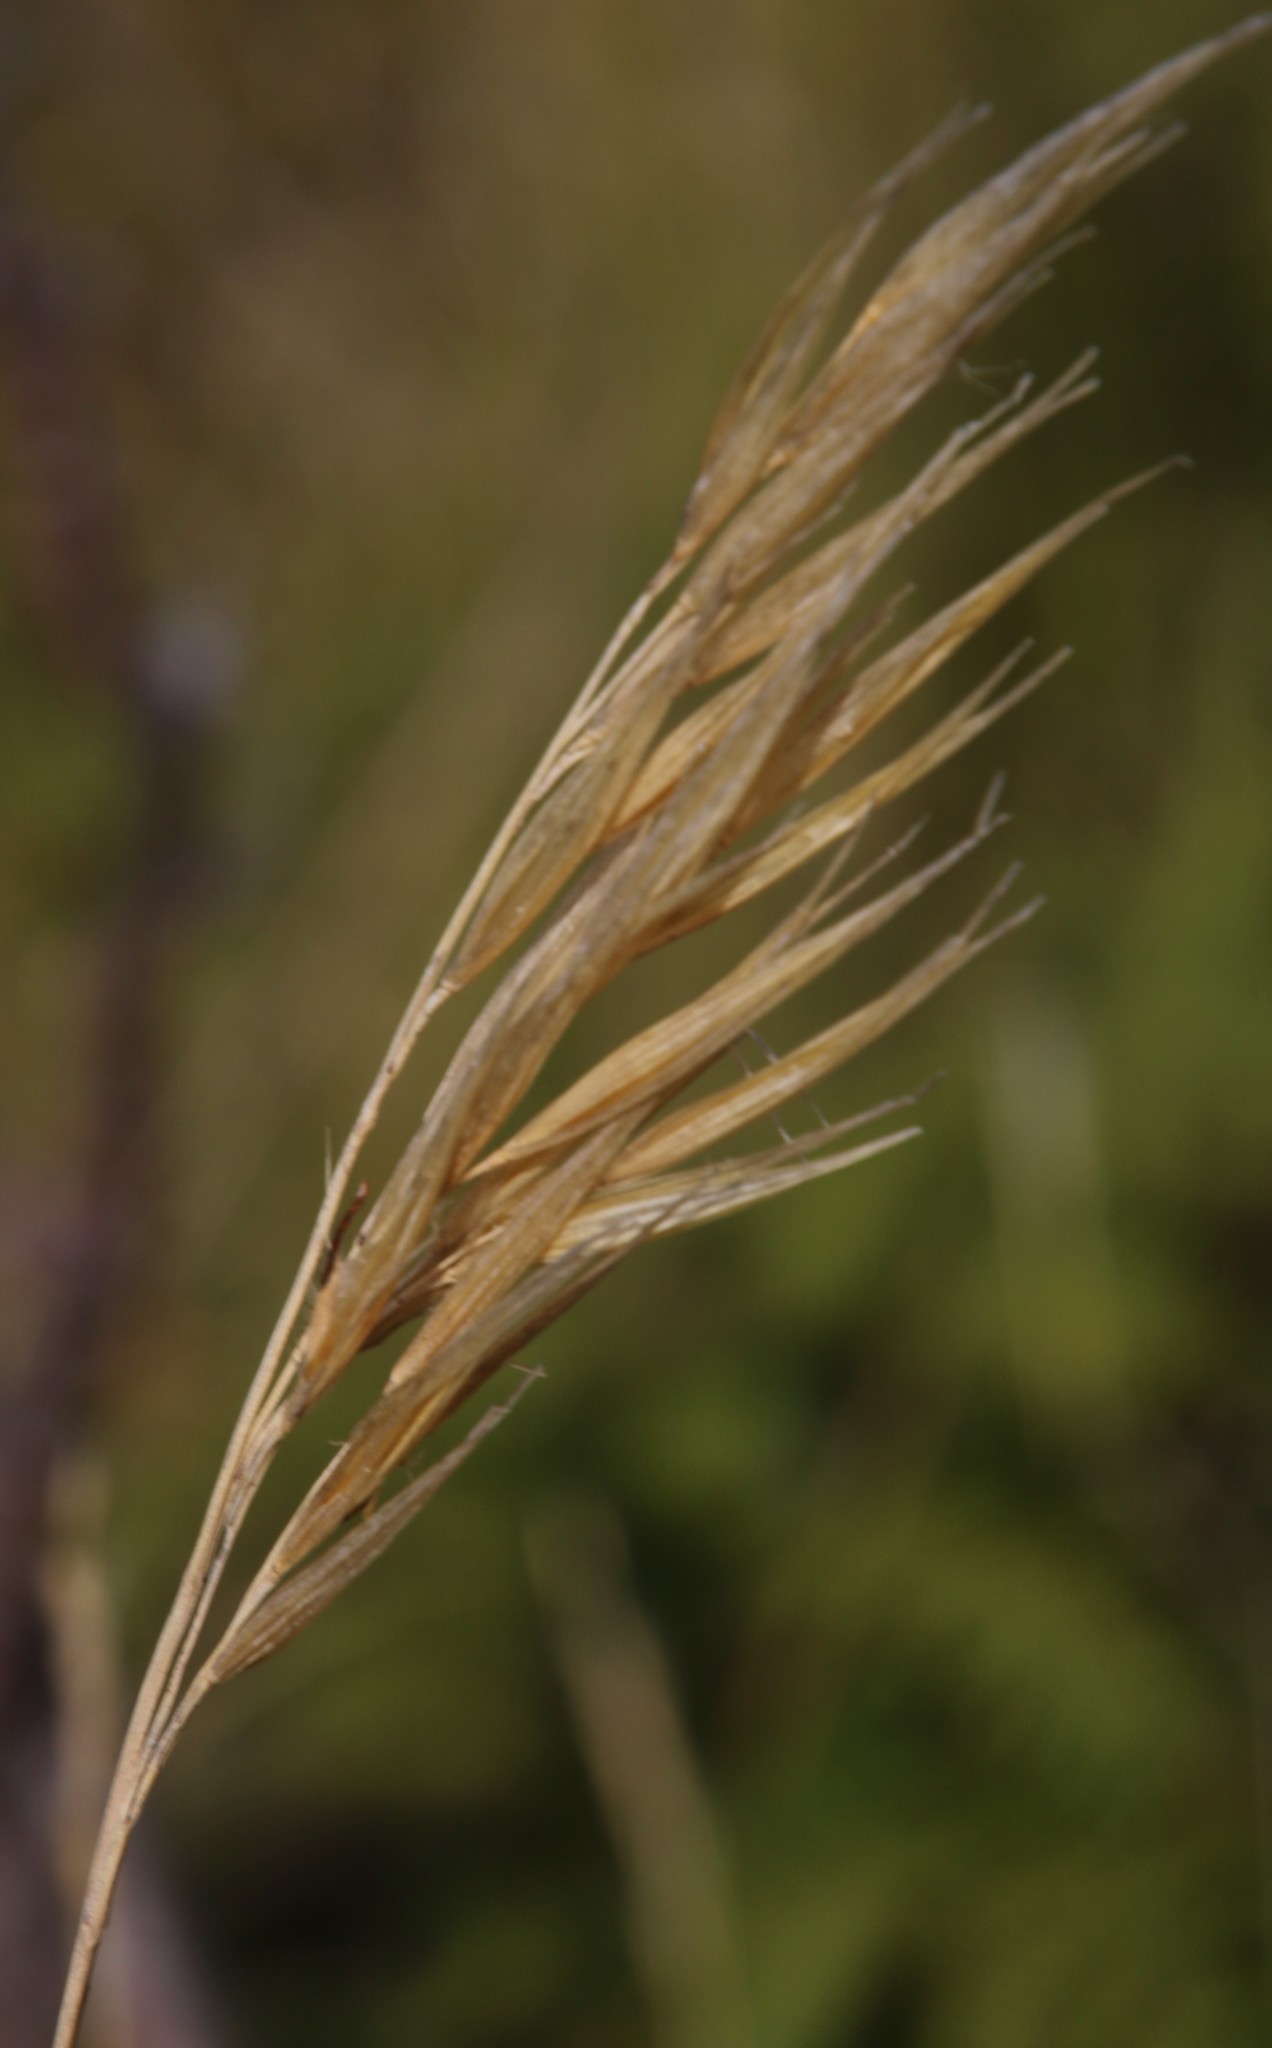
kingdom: Plantae
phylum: Tracheophyta
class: Liliopsida
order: Poales
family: Poaceae
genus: Pseudopentameris
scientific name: Pseudopentameris macrantha
